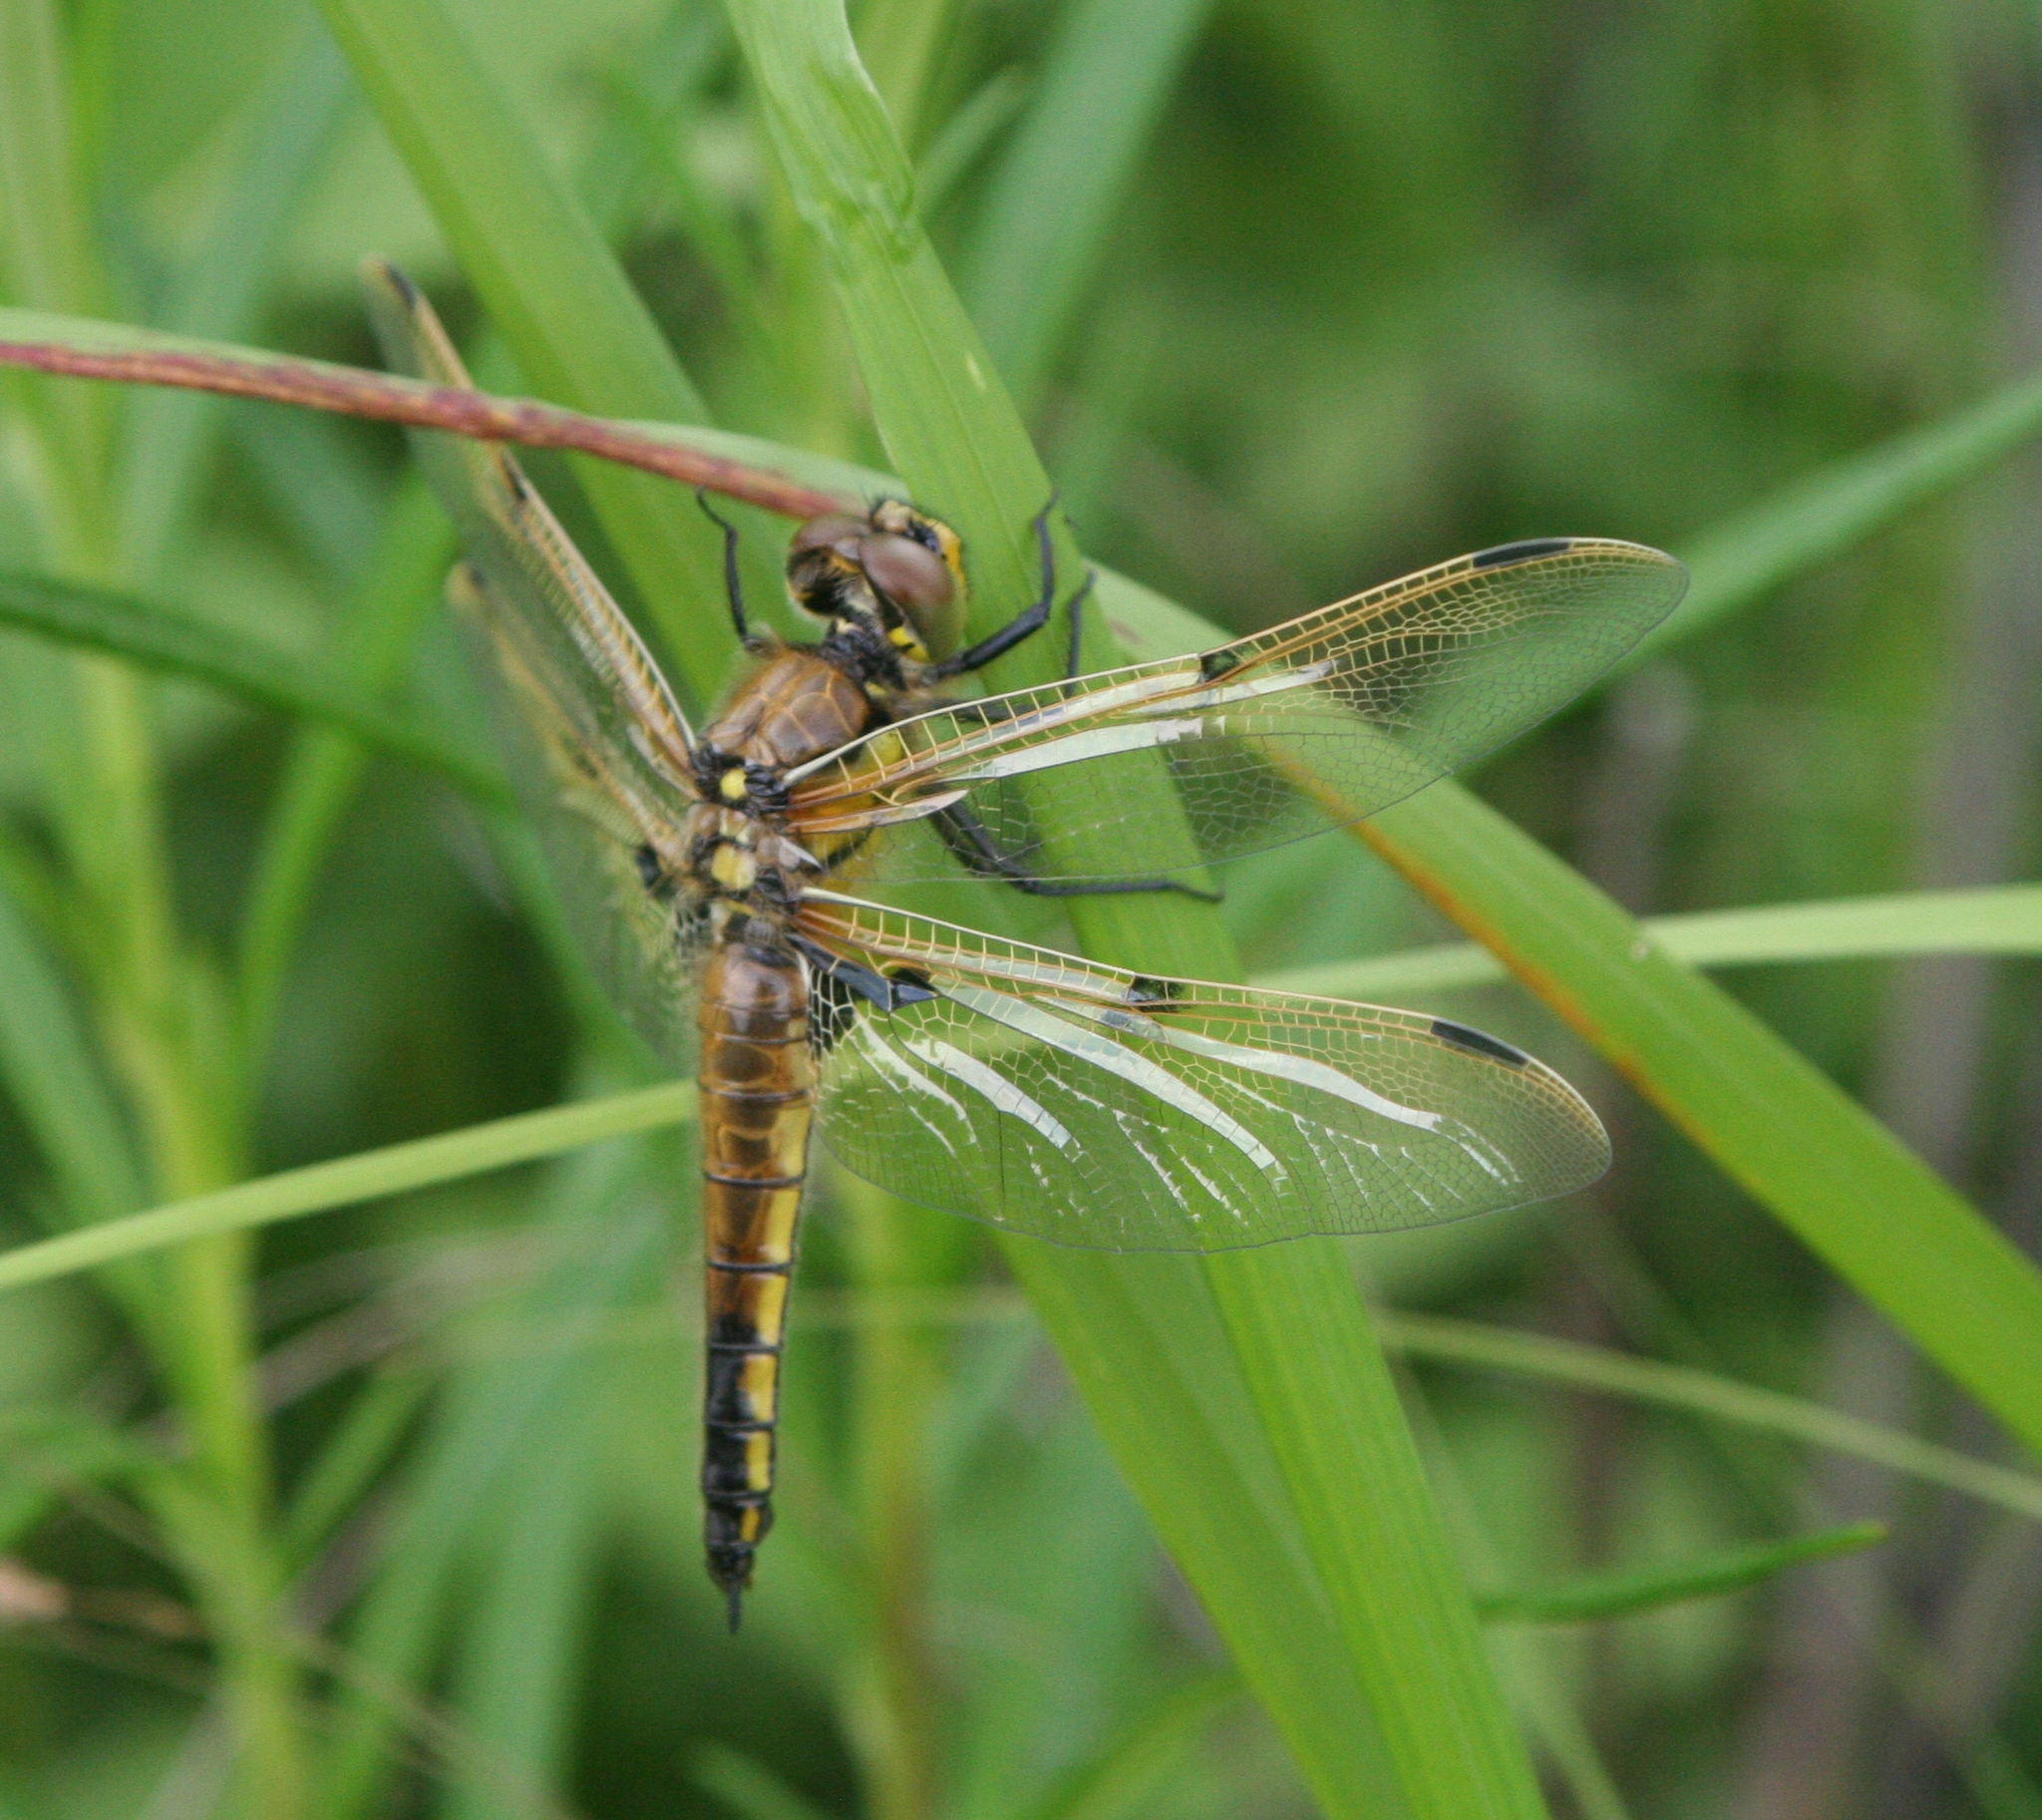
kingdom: Animalia
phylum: Arthropoda
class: Insecta
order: Odonata
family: Libellulidae
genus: Libellula
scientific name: Libellula quadrimaculata
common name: Four-spotted chaser
